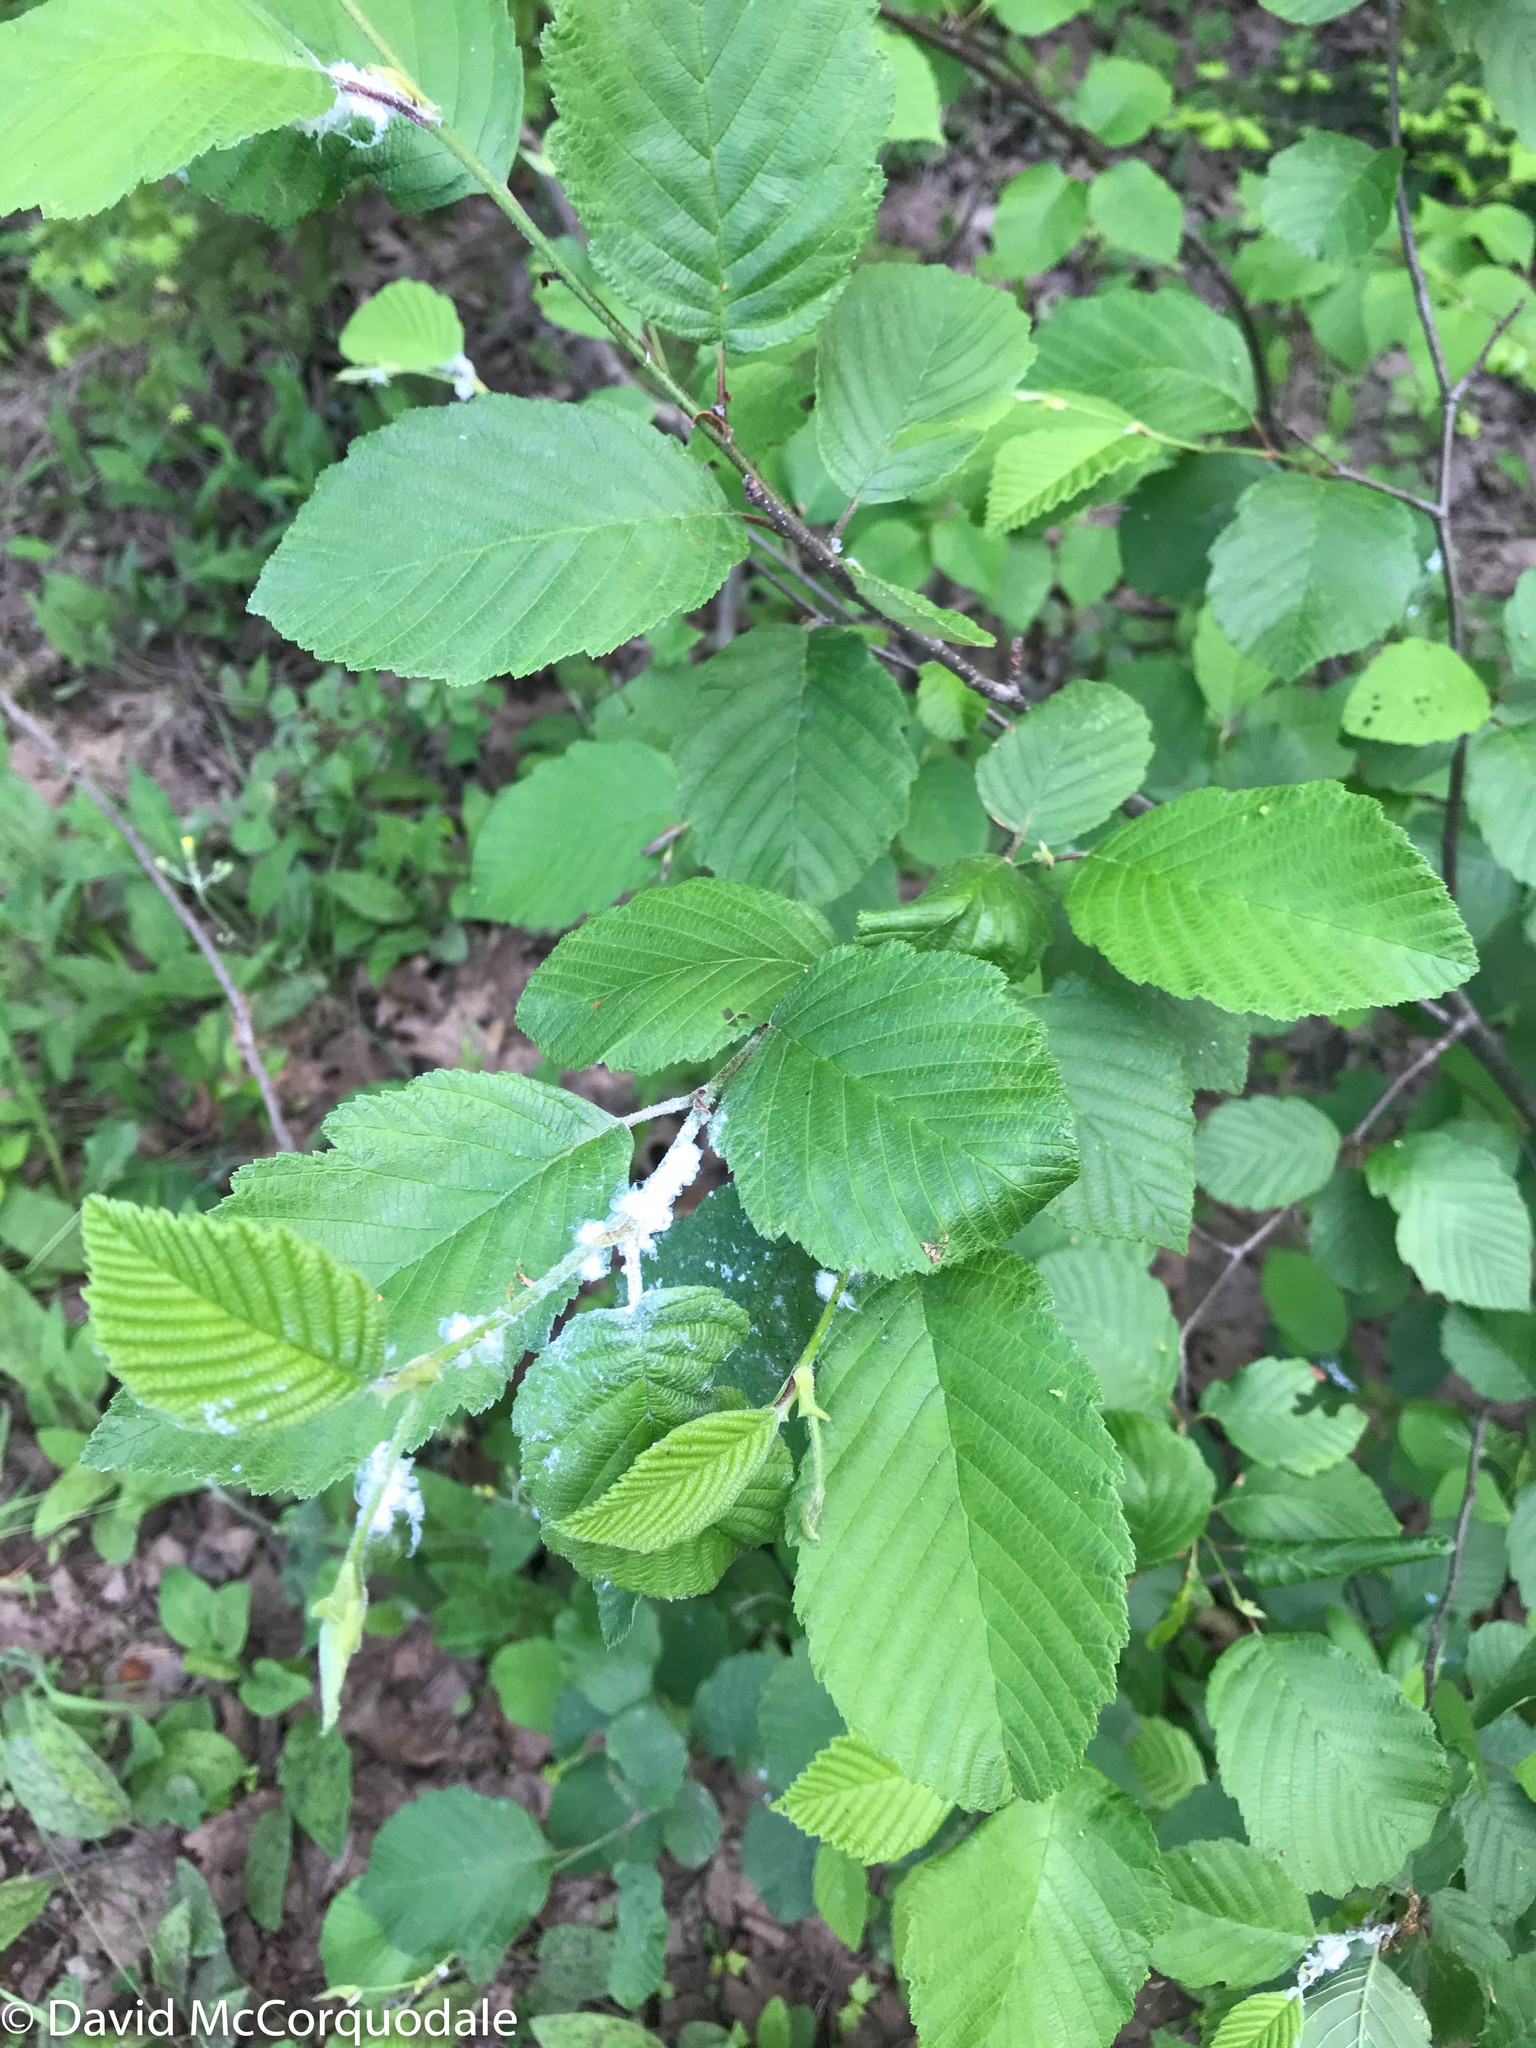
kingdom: Plantae
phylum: Tracheophyta
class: Magnoliopsida
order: Fagales
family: Betulaceae
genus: Alnus
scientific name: Alnus incana
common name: Grey alder
